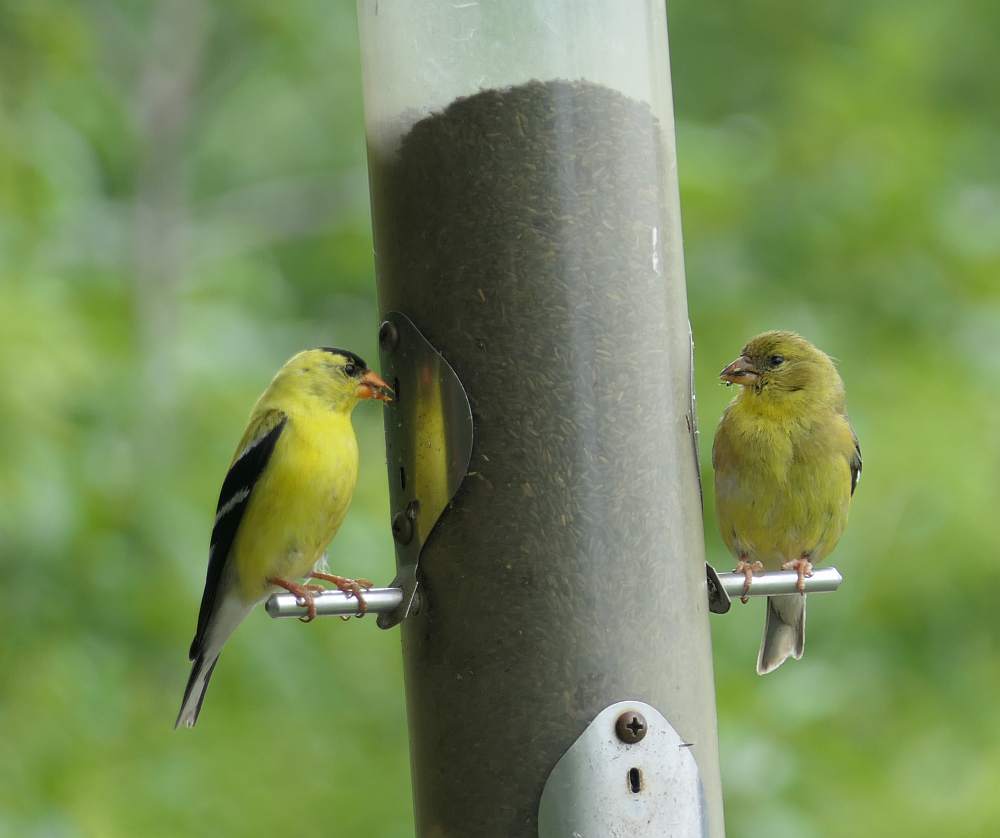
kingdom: Animalia
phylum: Chordata
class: Aves
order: Passeriformes
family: Fringillidae
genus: Spinus
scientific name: Spinus tristis
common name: American goldfinch
